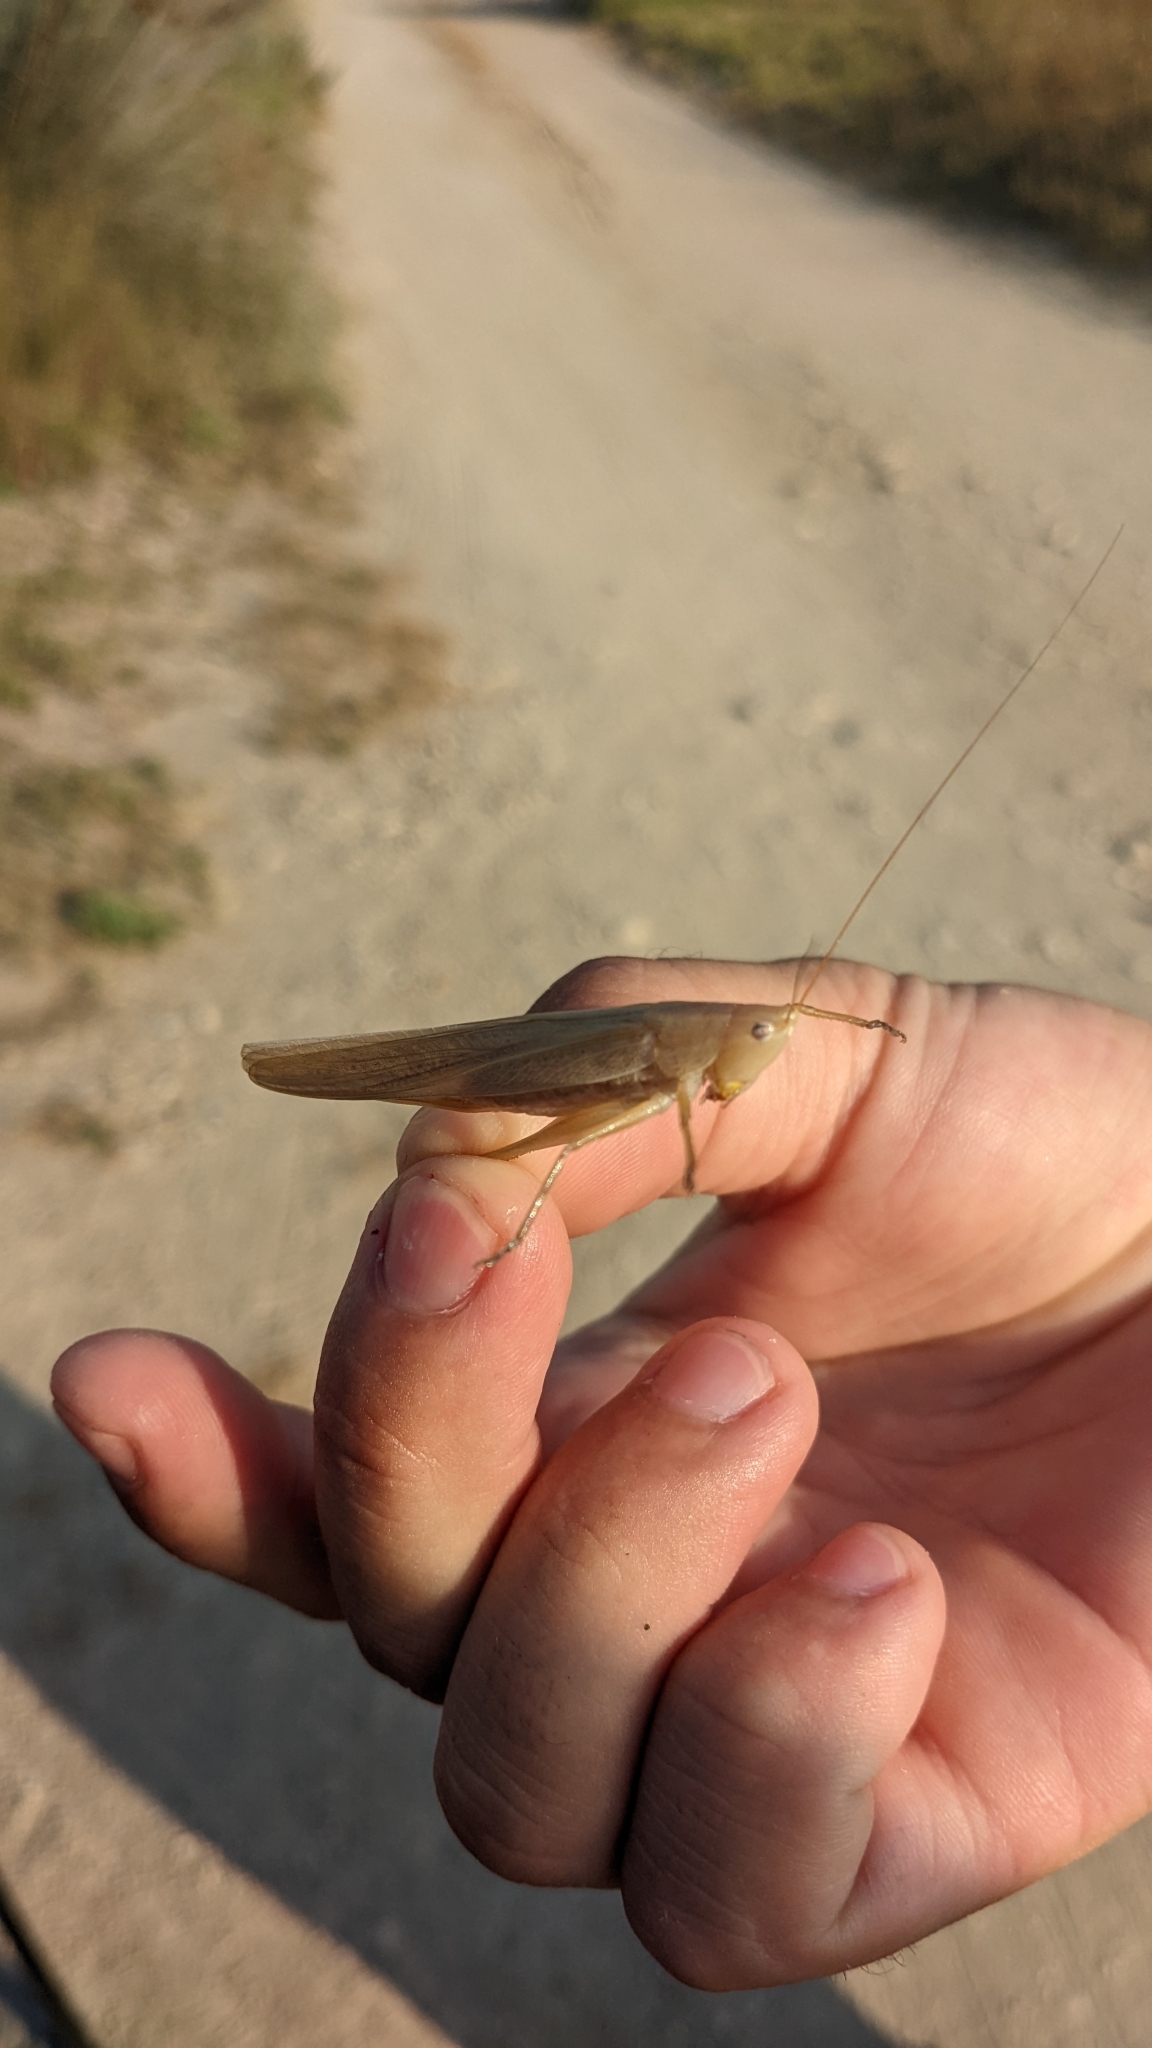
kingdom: Animalia
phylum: Arthropoda
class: Insecta
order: Orthoptera
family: Tettigoniidae
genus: Ruspolia
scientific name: Ruspolia nitidula
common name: Large conehead
